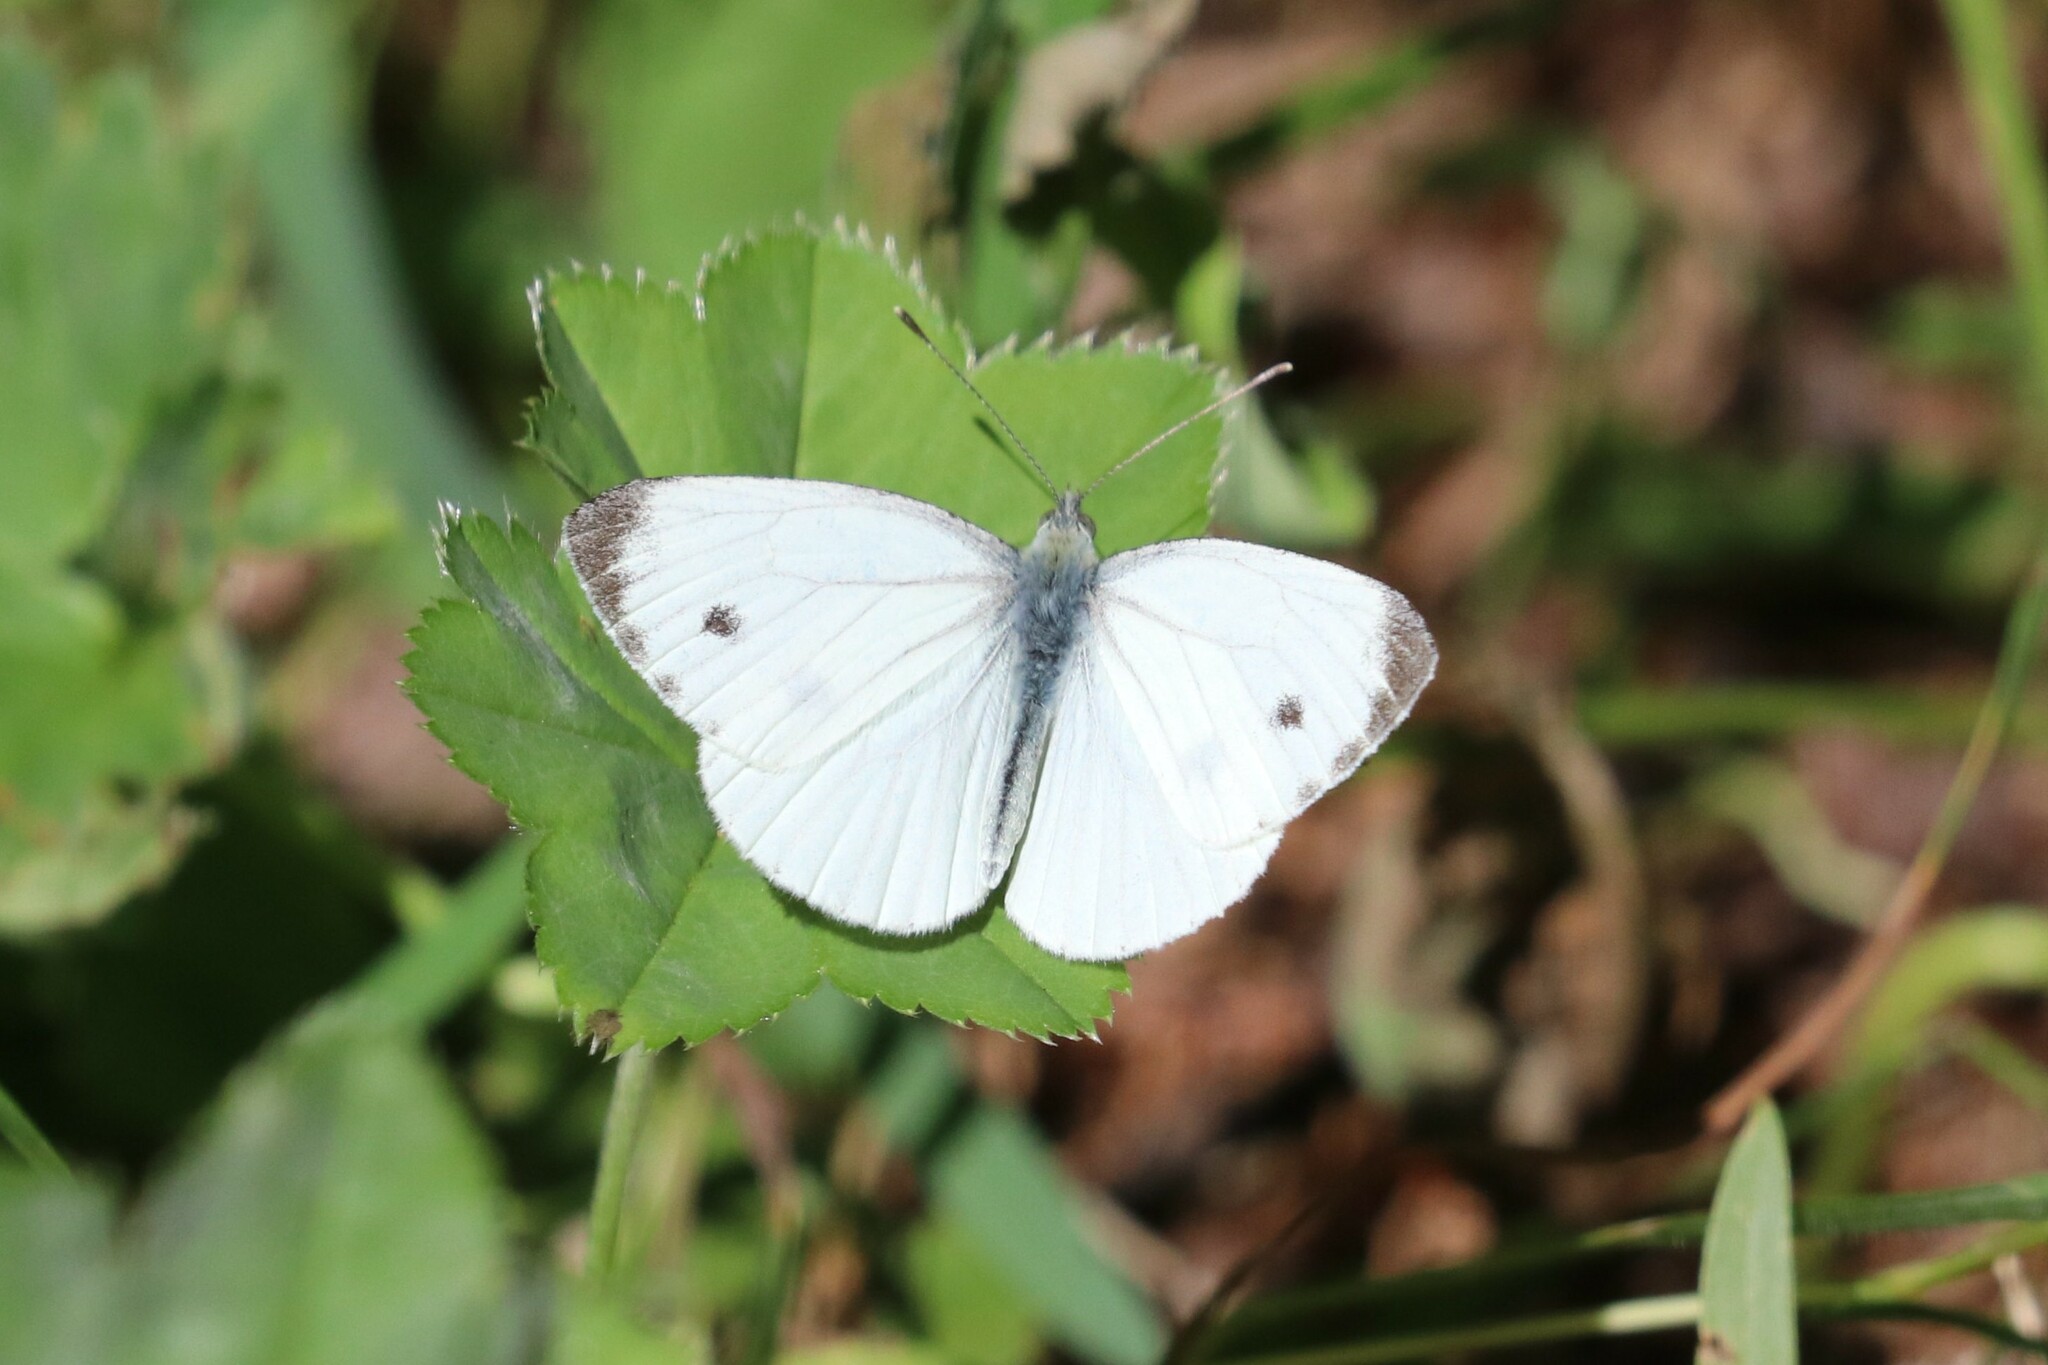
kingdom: Animalia
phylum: Arthropoda
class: Insecta
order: Lepidoptera
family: Pieridae
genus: Pieris
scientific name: Pieris napi
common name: Green-veined white
